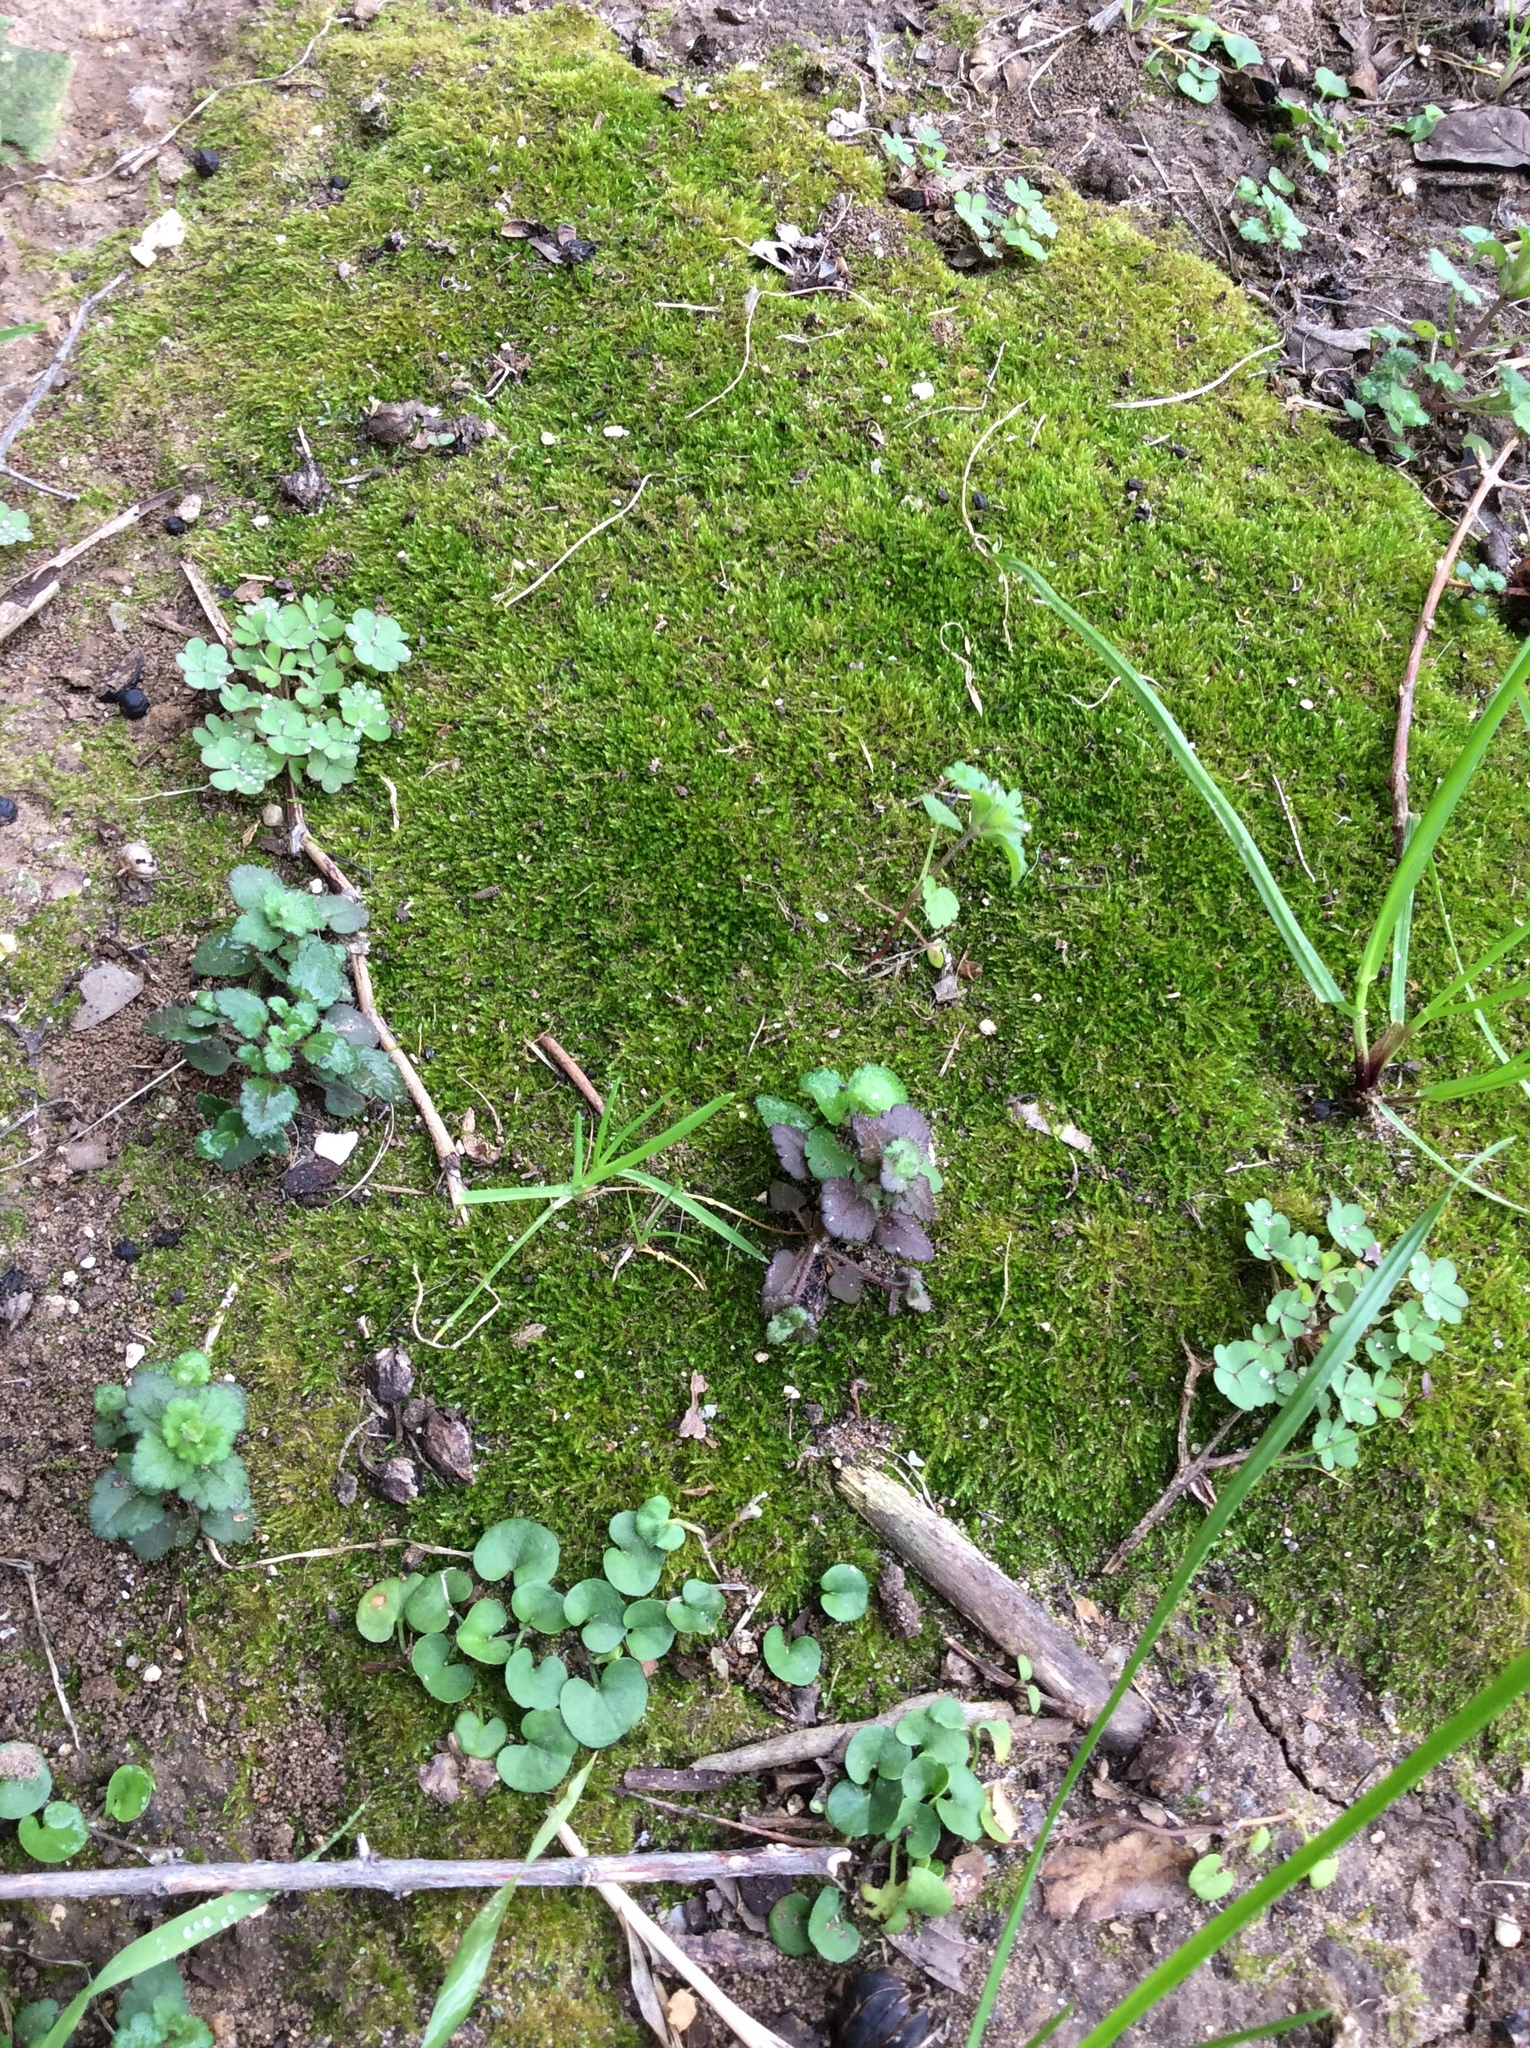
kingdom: Plantae
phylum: Tracheophyta
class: Magnoliopsida
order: Solanales
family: Convolvulaceae
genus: Dichondra
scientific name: Dichondra carolinensis
